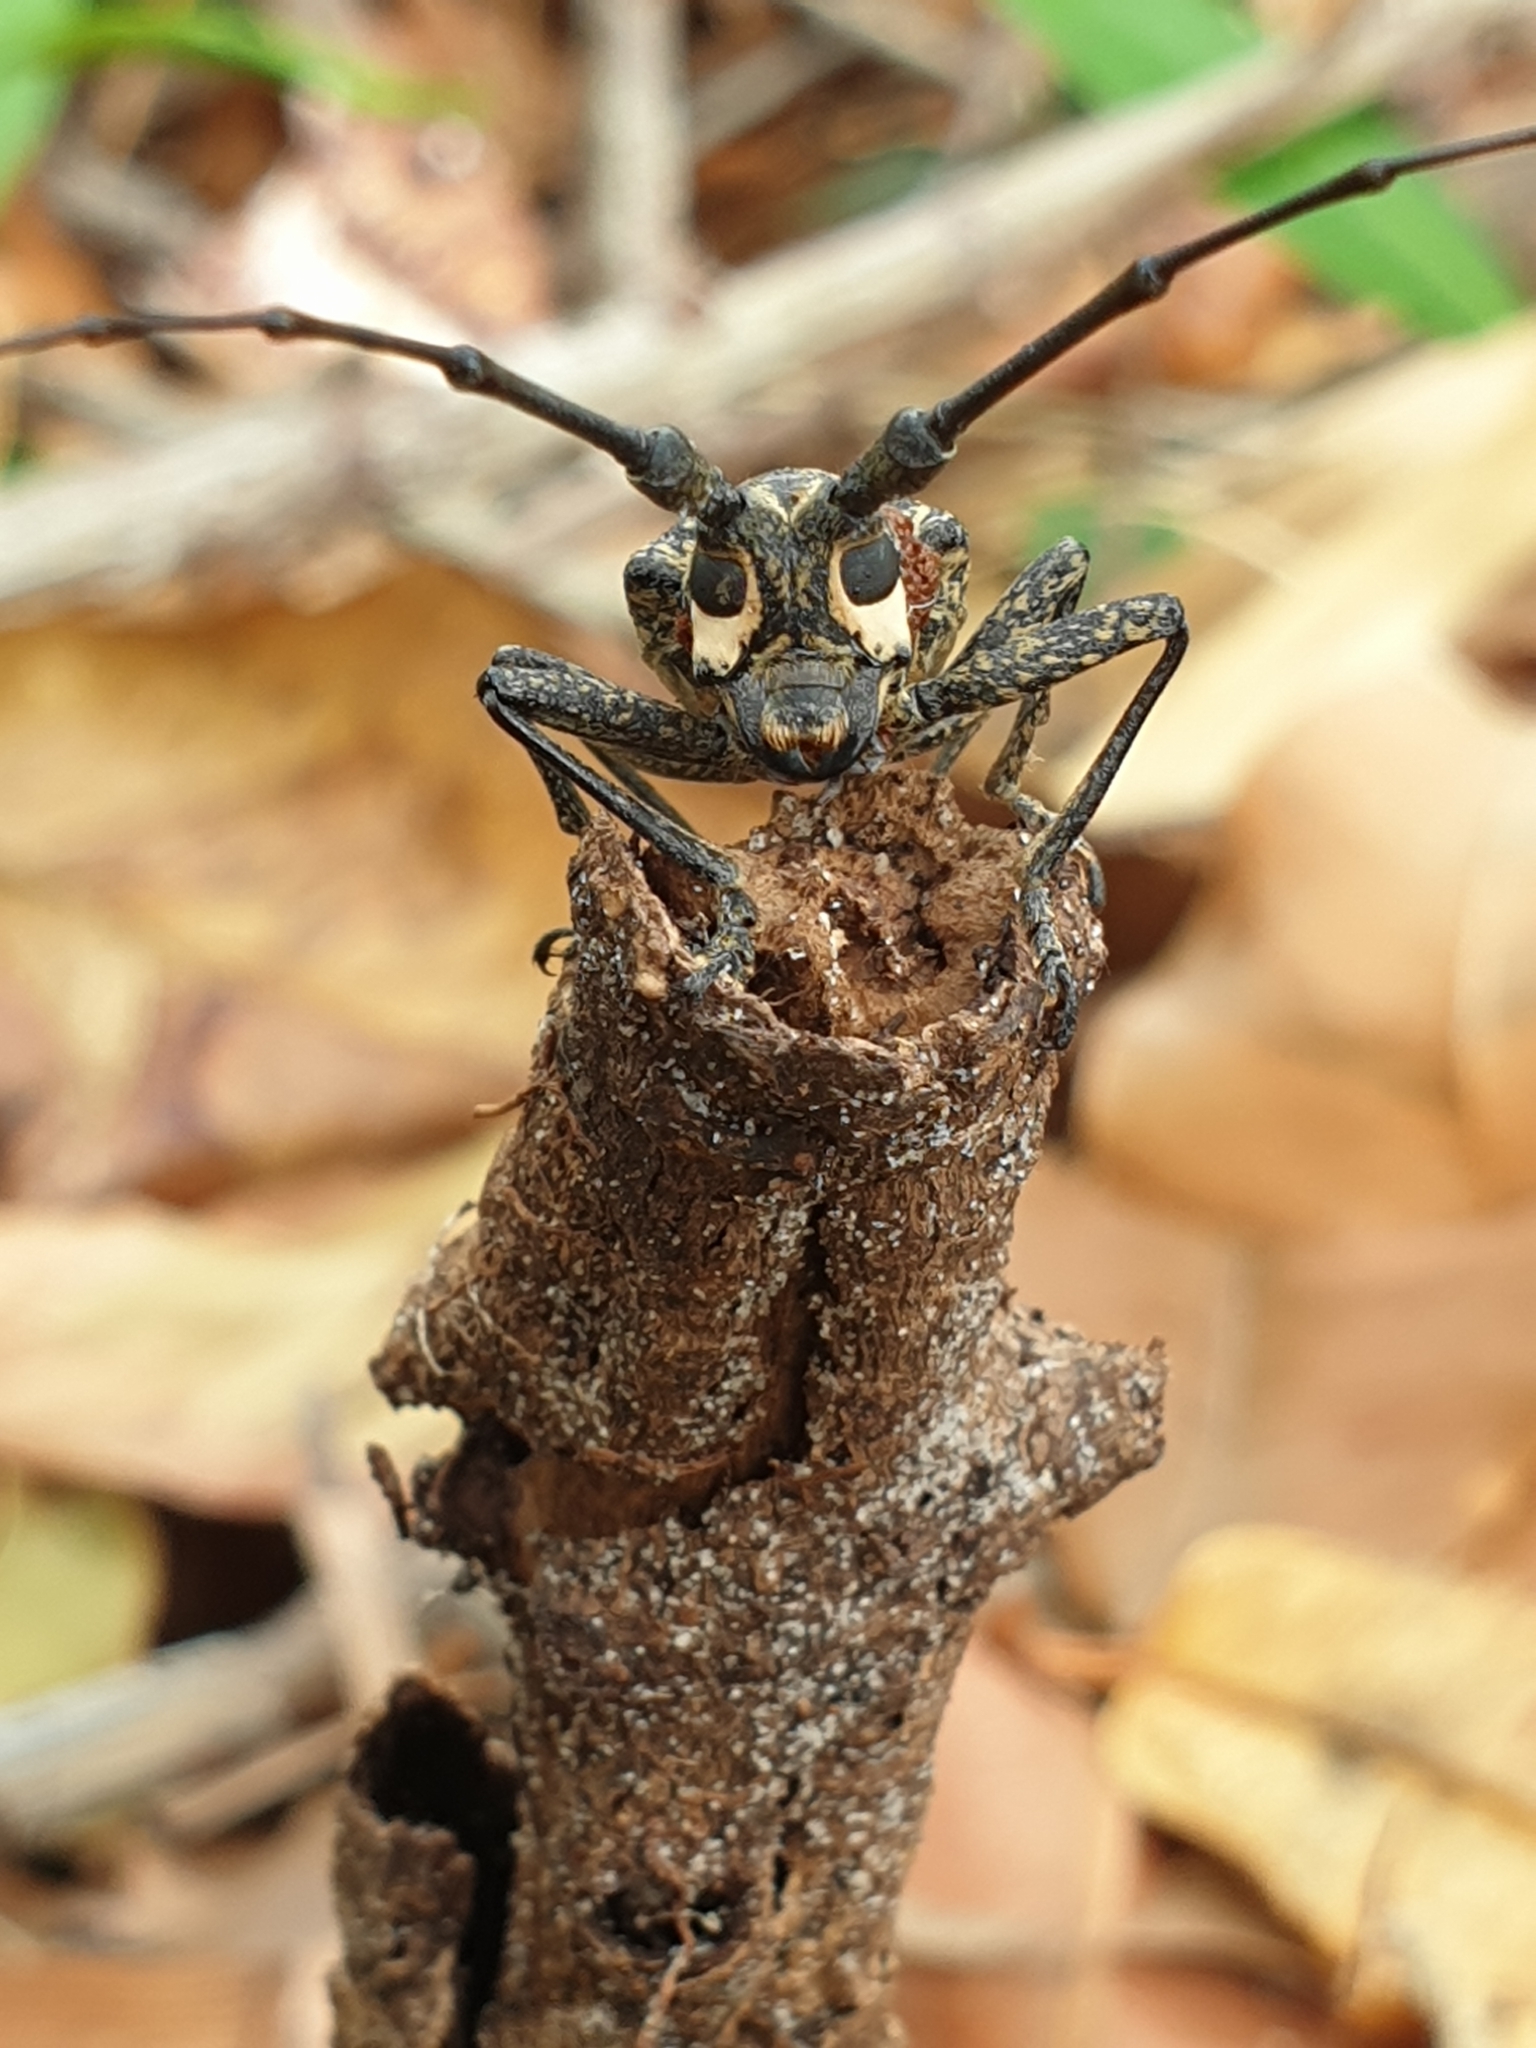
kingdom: Animalia
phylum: Arthropoda
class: Insecta
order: Coleoptera
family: Cerambycidae
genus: Pelargoderus
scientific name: Pelargoderus rubropunctatus
